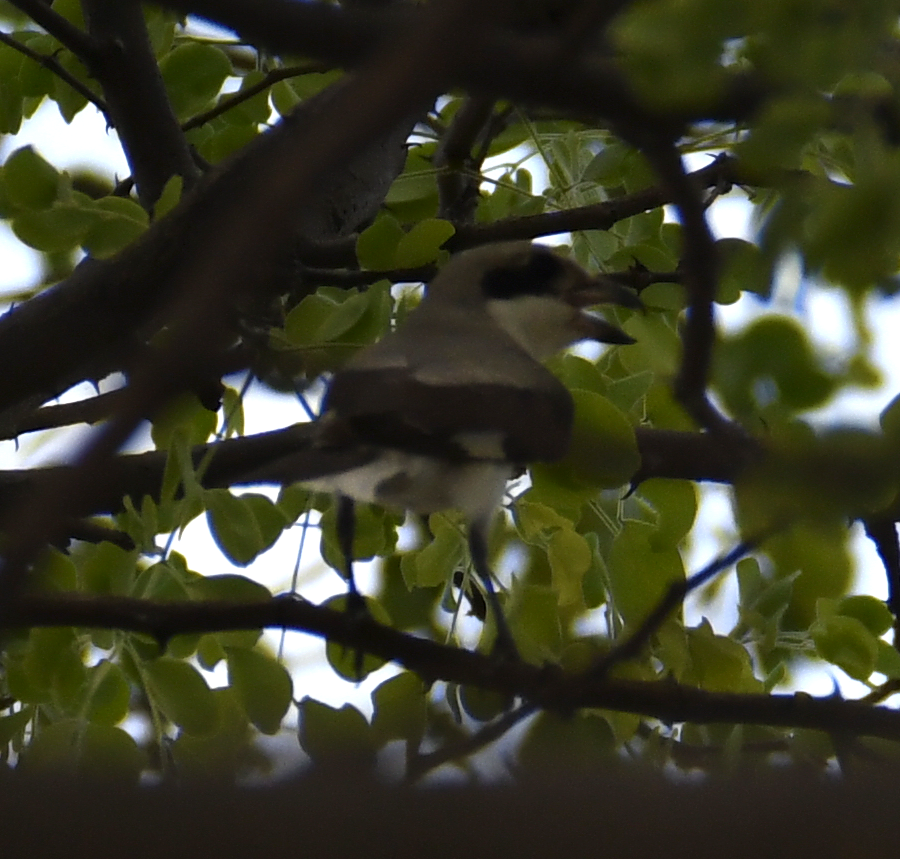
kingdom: Animalia
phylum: Chordata
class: Aves
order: Passeriformes
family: Laniidae
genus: Lanius
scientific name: Lanius minor
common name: Lesser grey shrike
